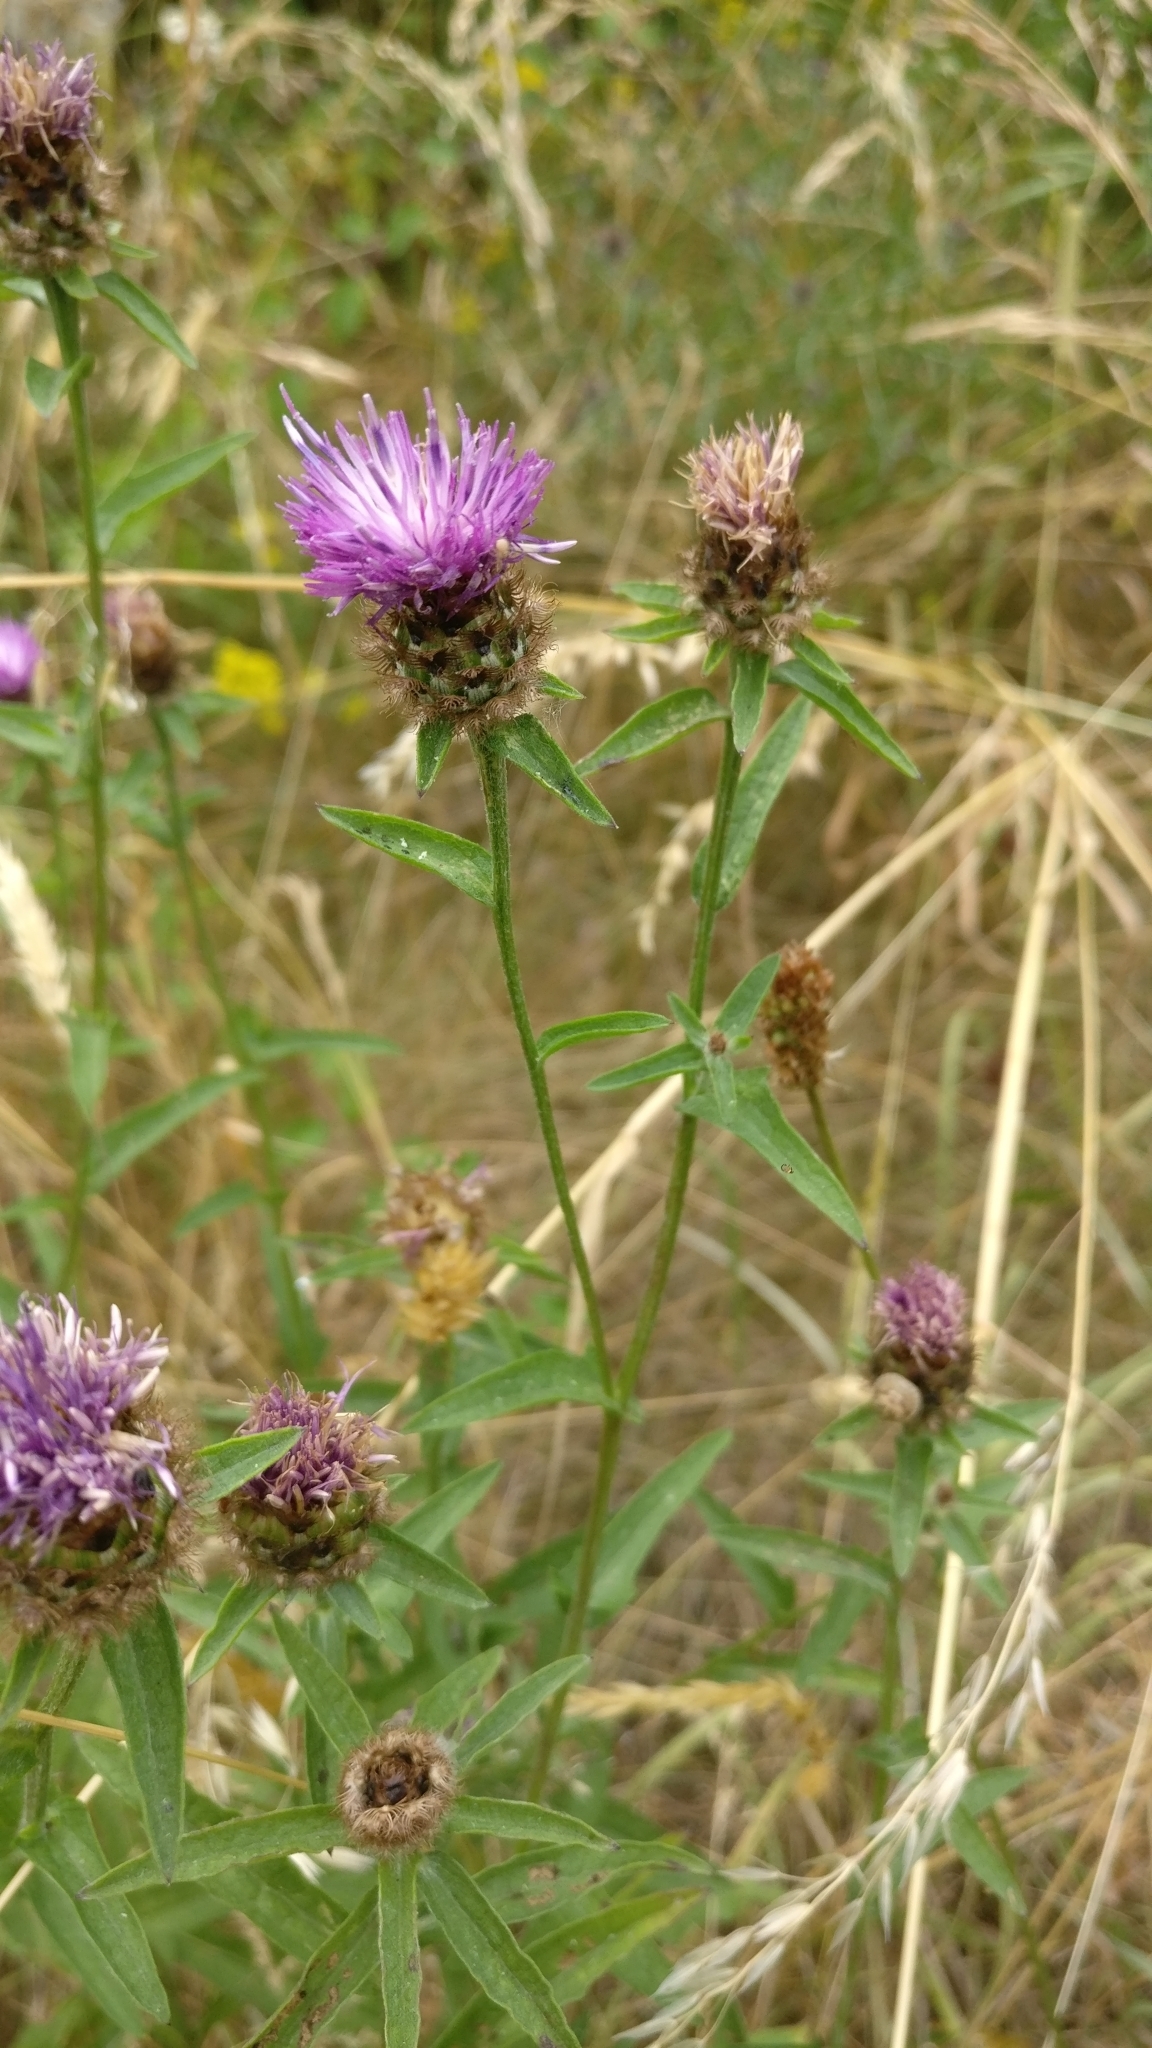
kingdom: Plantae
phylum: Tracheophyta
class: Magnoliopsida
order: Asterales
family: Asteraceae
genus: Centaurea
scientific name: Centaurea nigra
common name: Lesser knapweed
